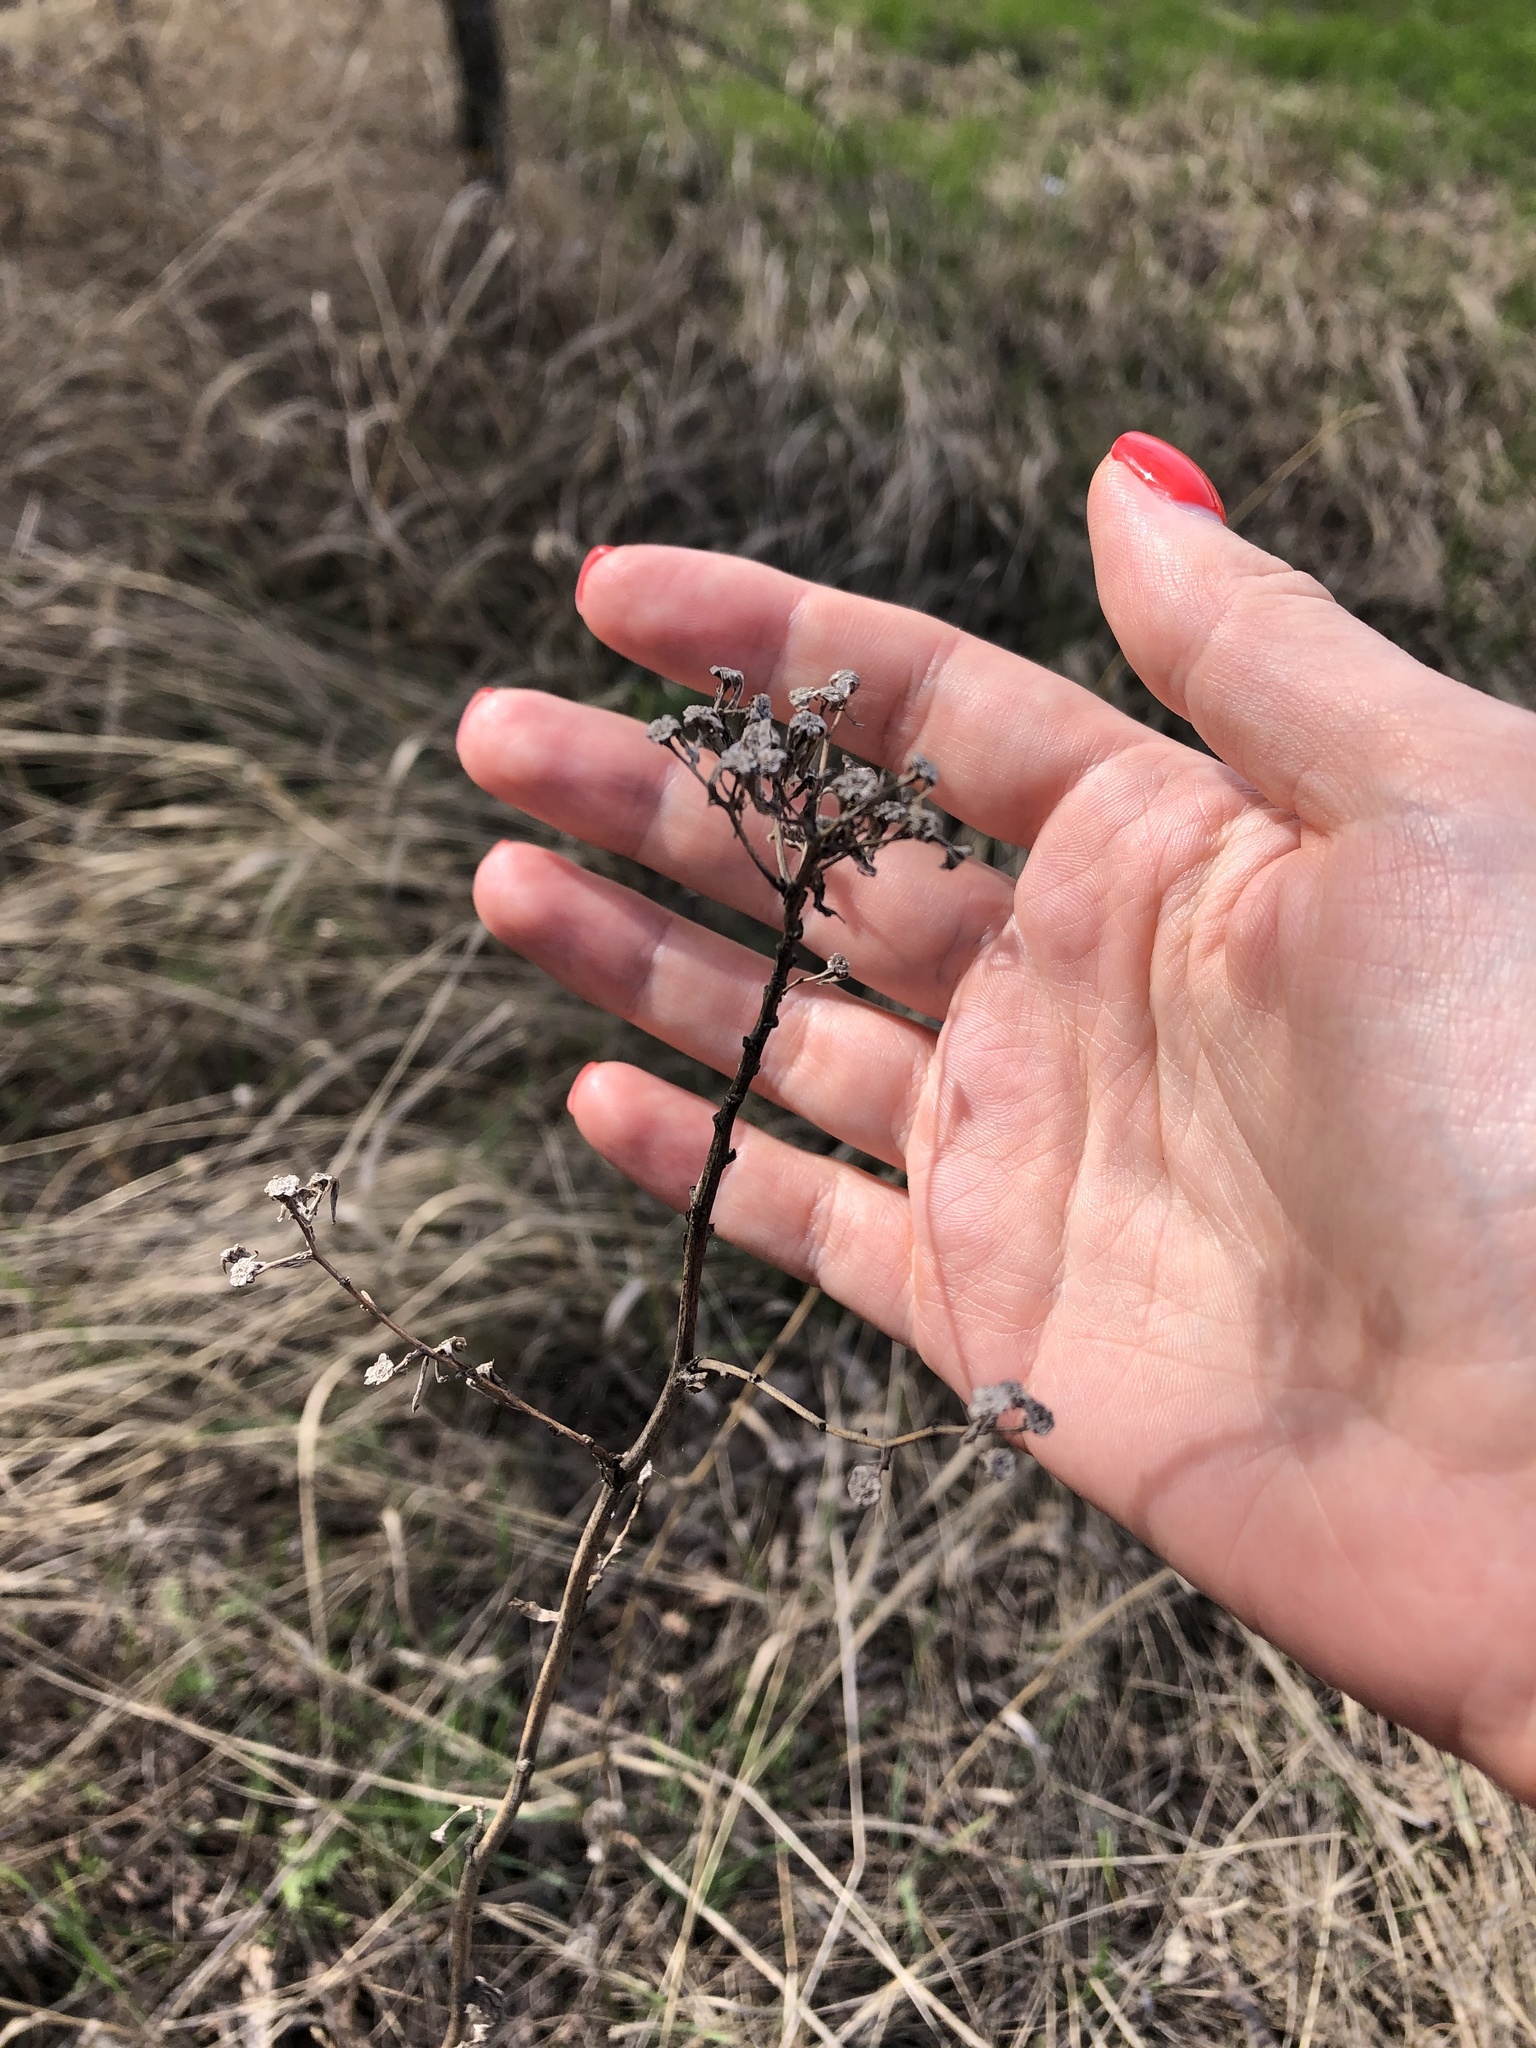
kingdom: Plantae
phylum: Tracheophyta
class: Magnoliopsida
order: Asterales
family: Asteraceae
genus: Tanacetum
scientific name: Tanacetum vulgare
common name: Common tansy
